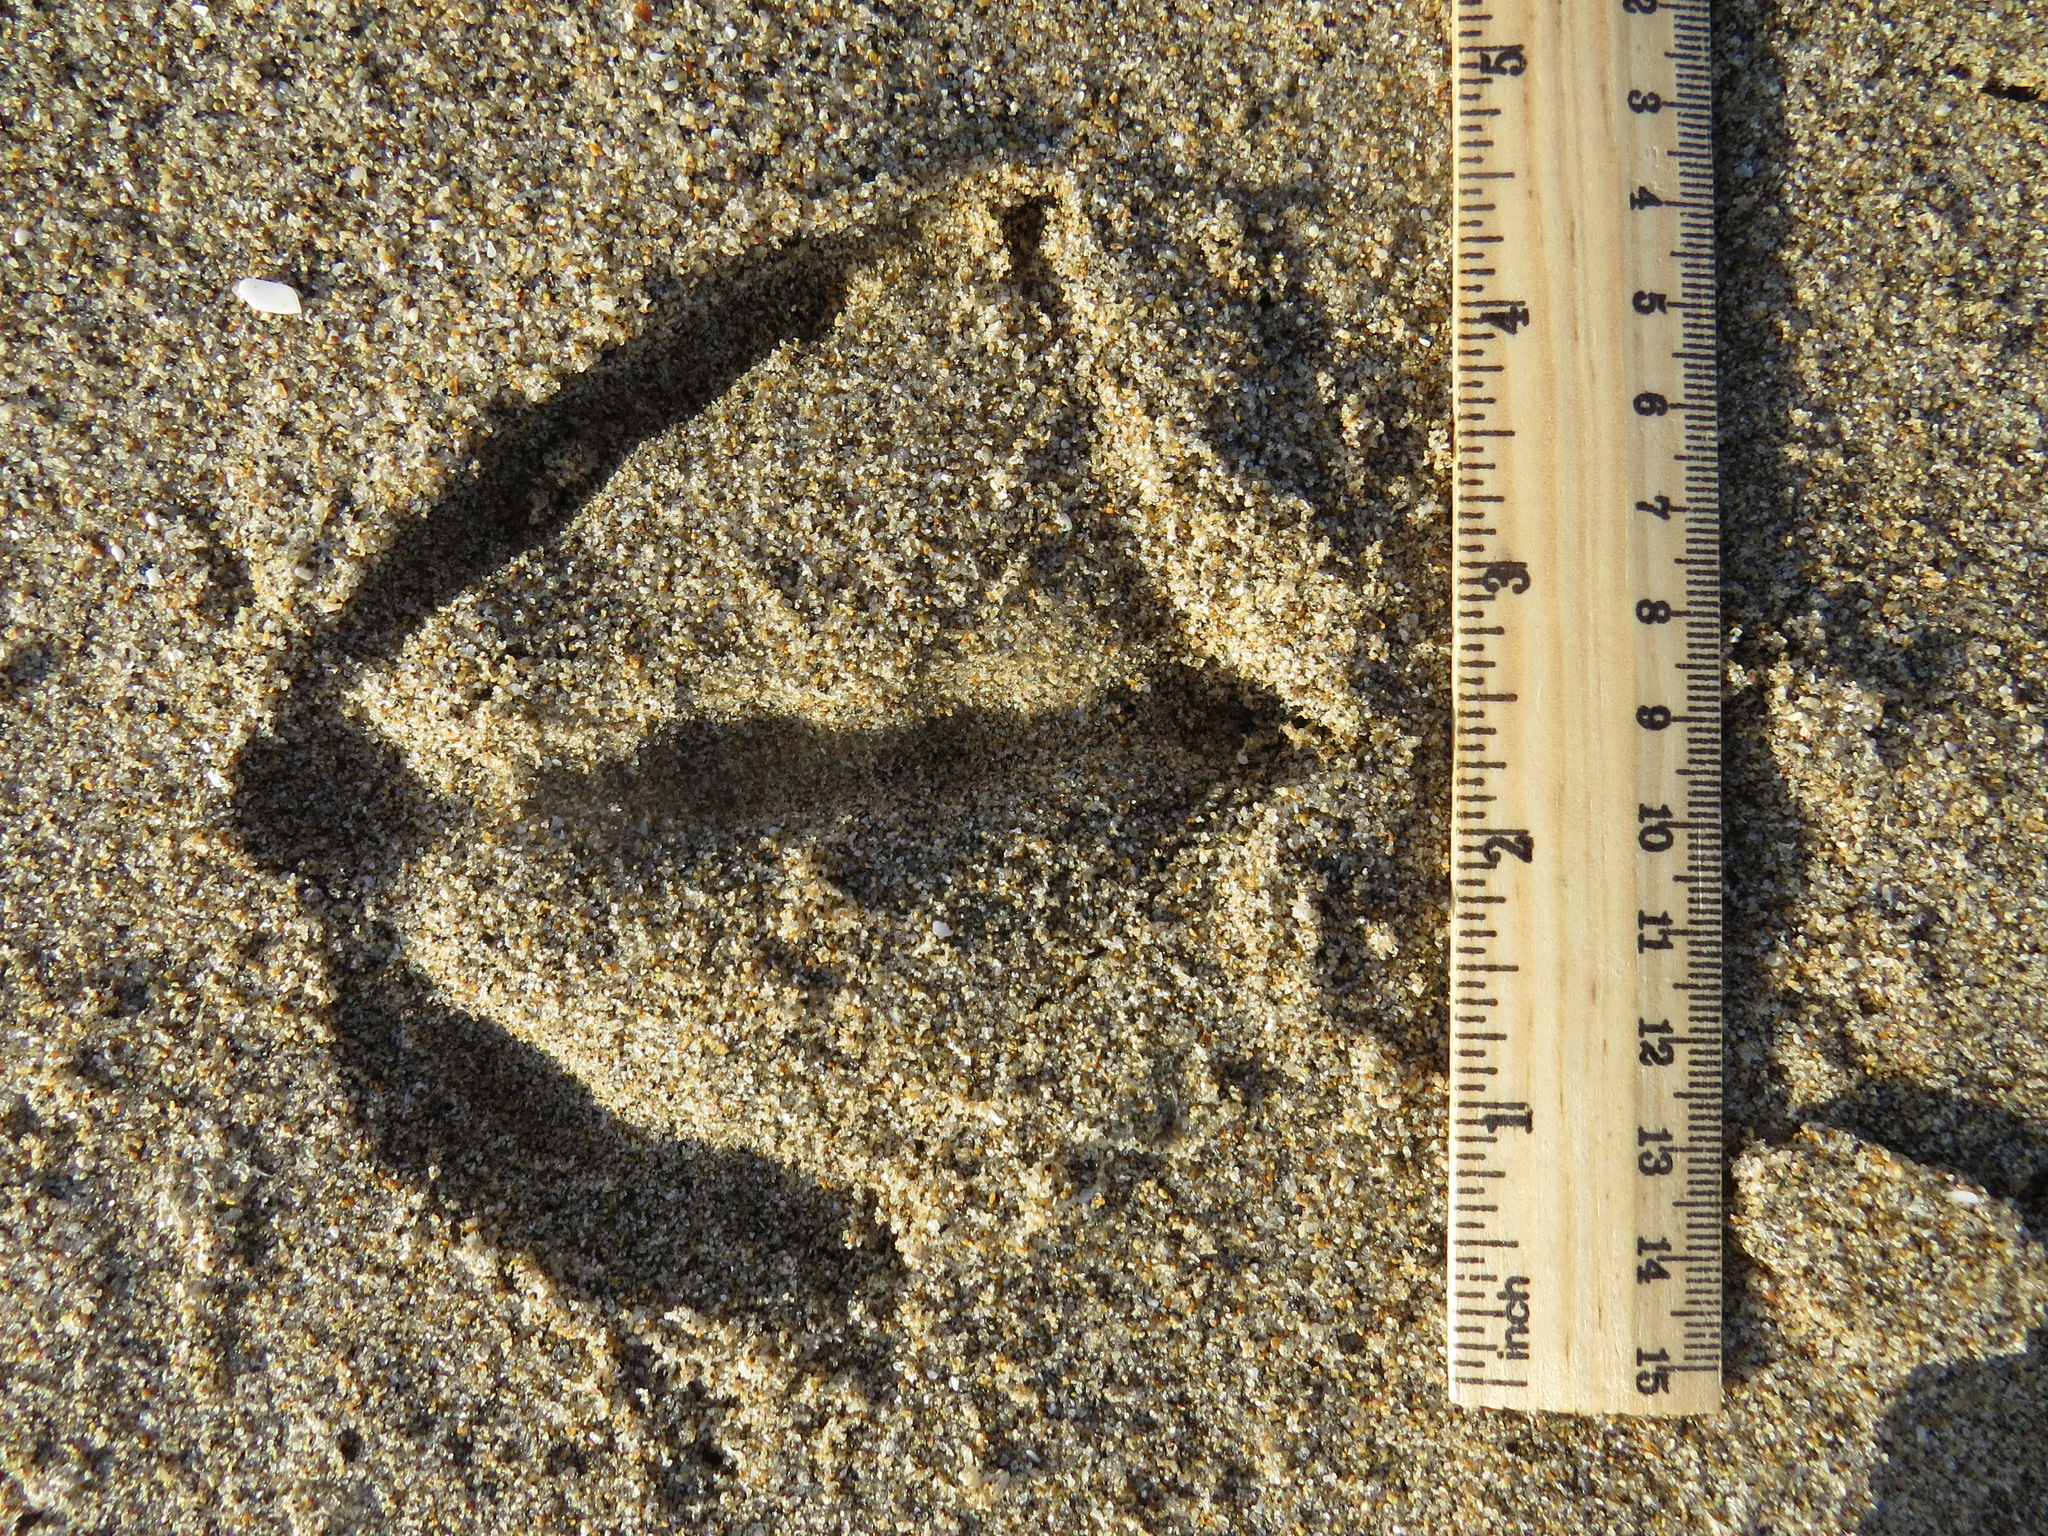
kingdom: Animalia
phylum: Chordata
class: Aves
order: Anseriformes
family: Anatidae
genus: Branta
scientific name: Branta canadensis
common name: Canada goose
